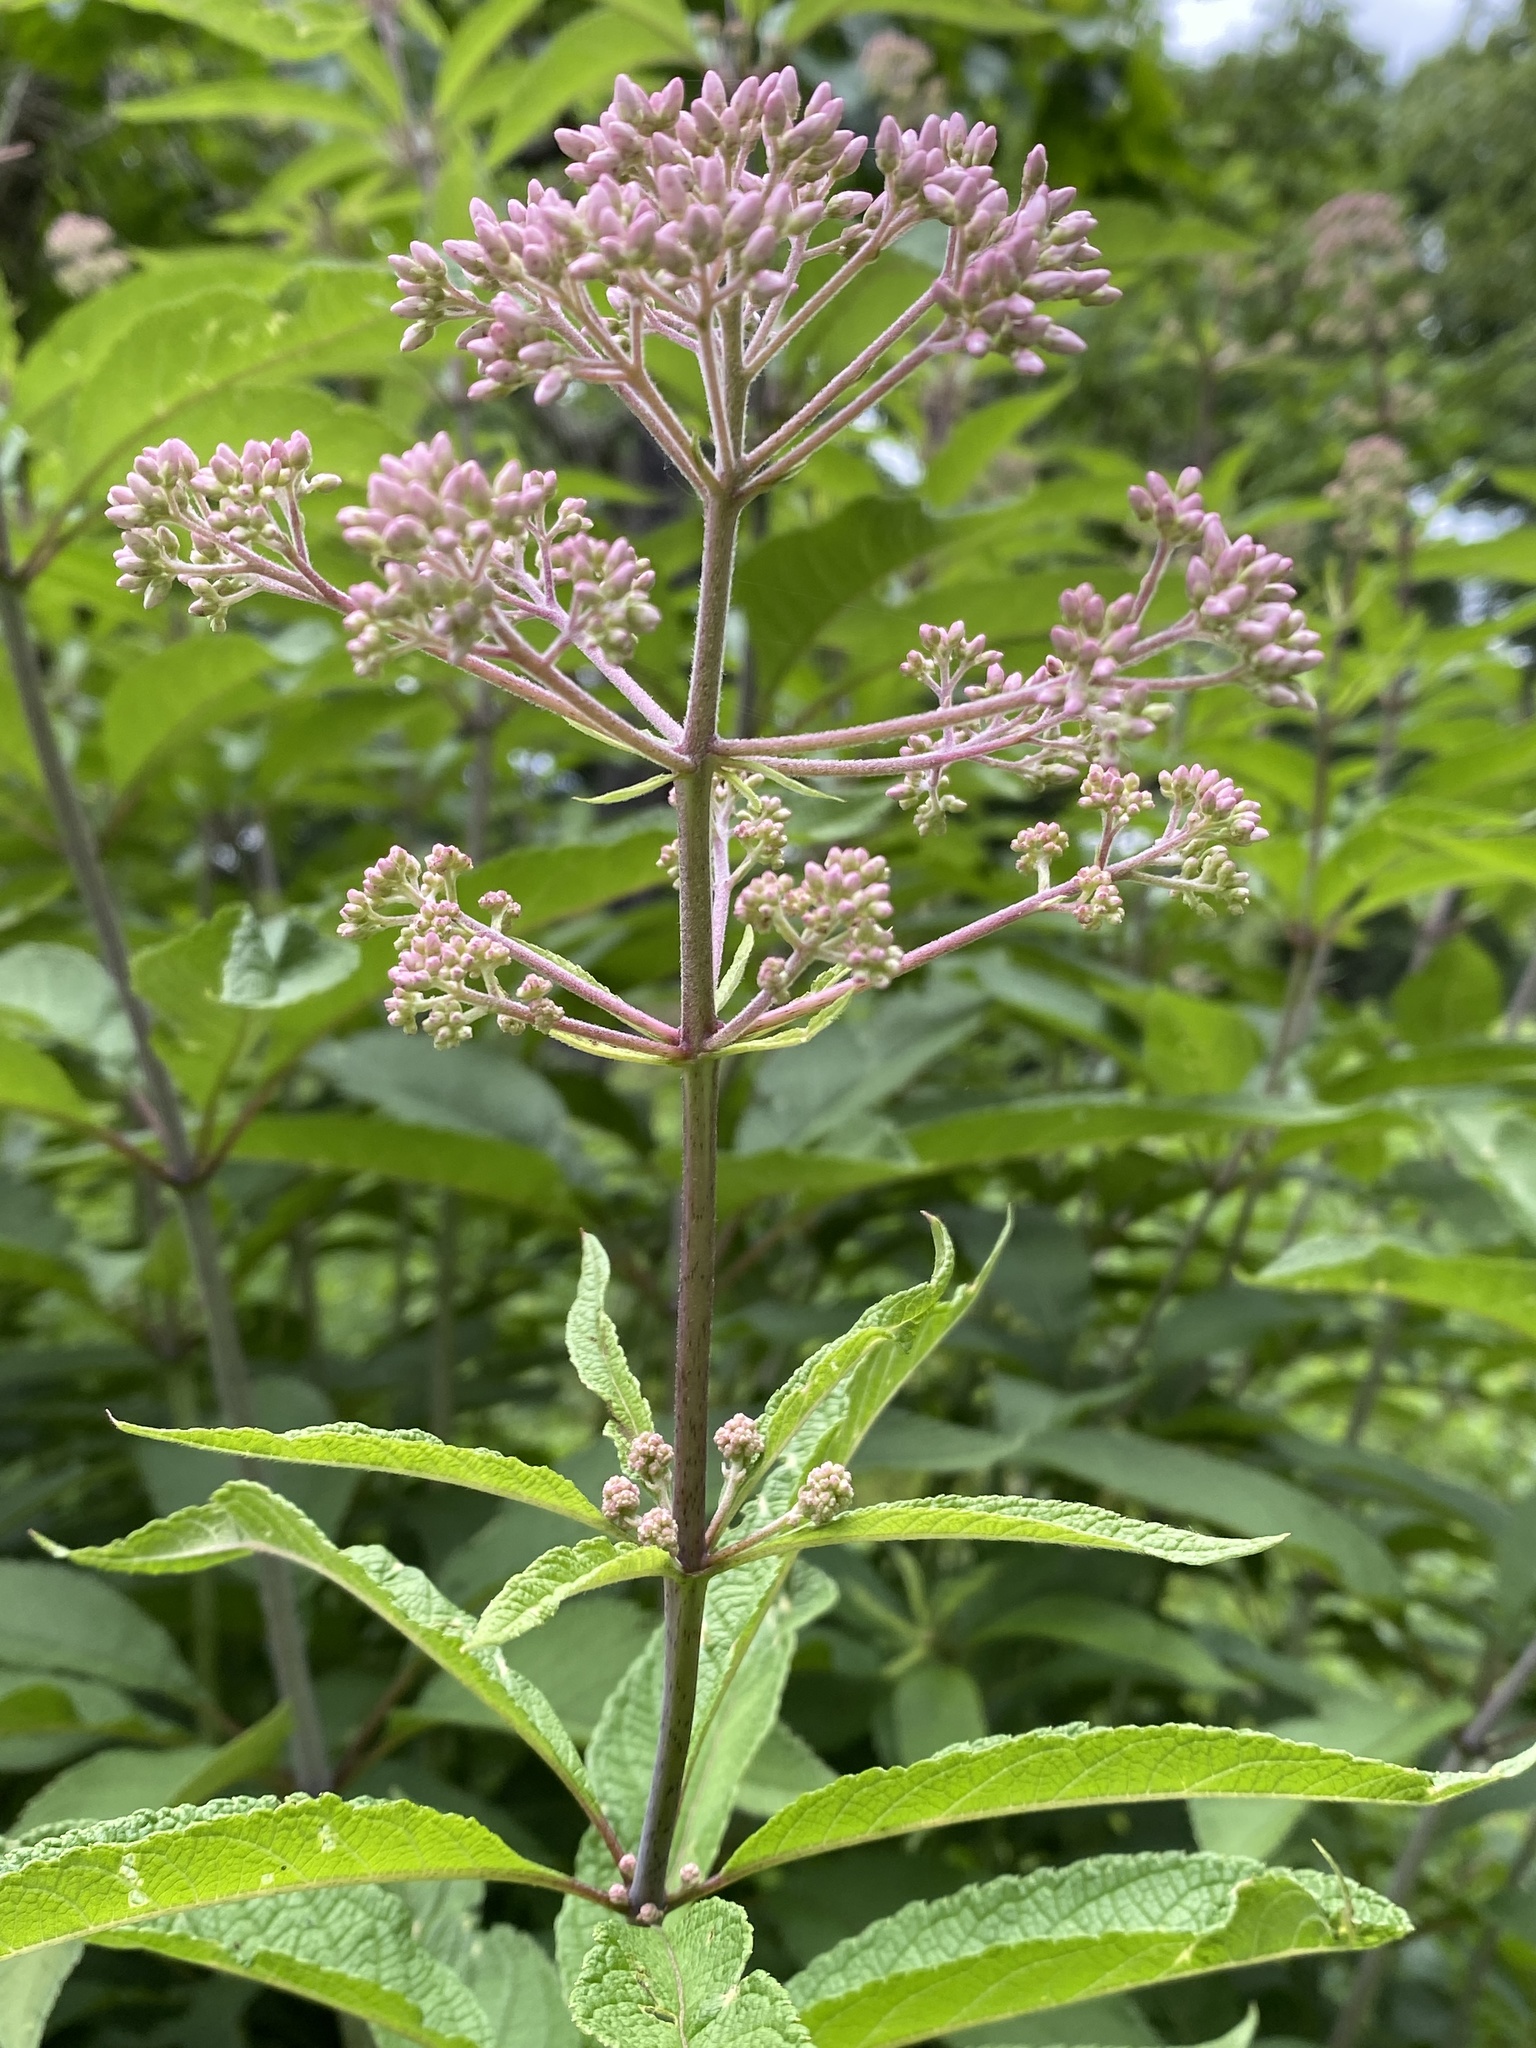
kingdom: Plantae
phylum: Tracheophyta
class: Magnoliopsida
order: Asterales
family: Asteraceae
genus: Eutrochium
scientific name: Eutrochium fistulosum
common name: Trumpetweed
